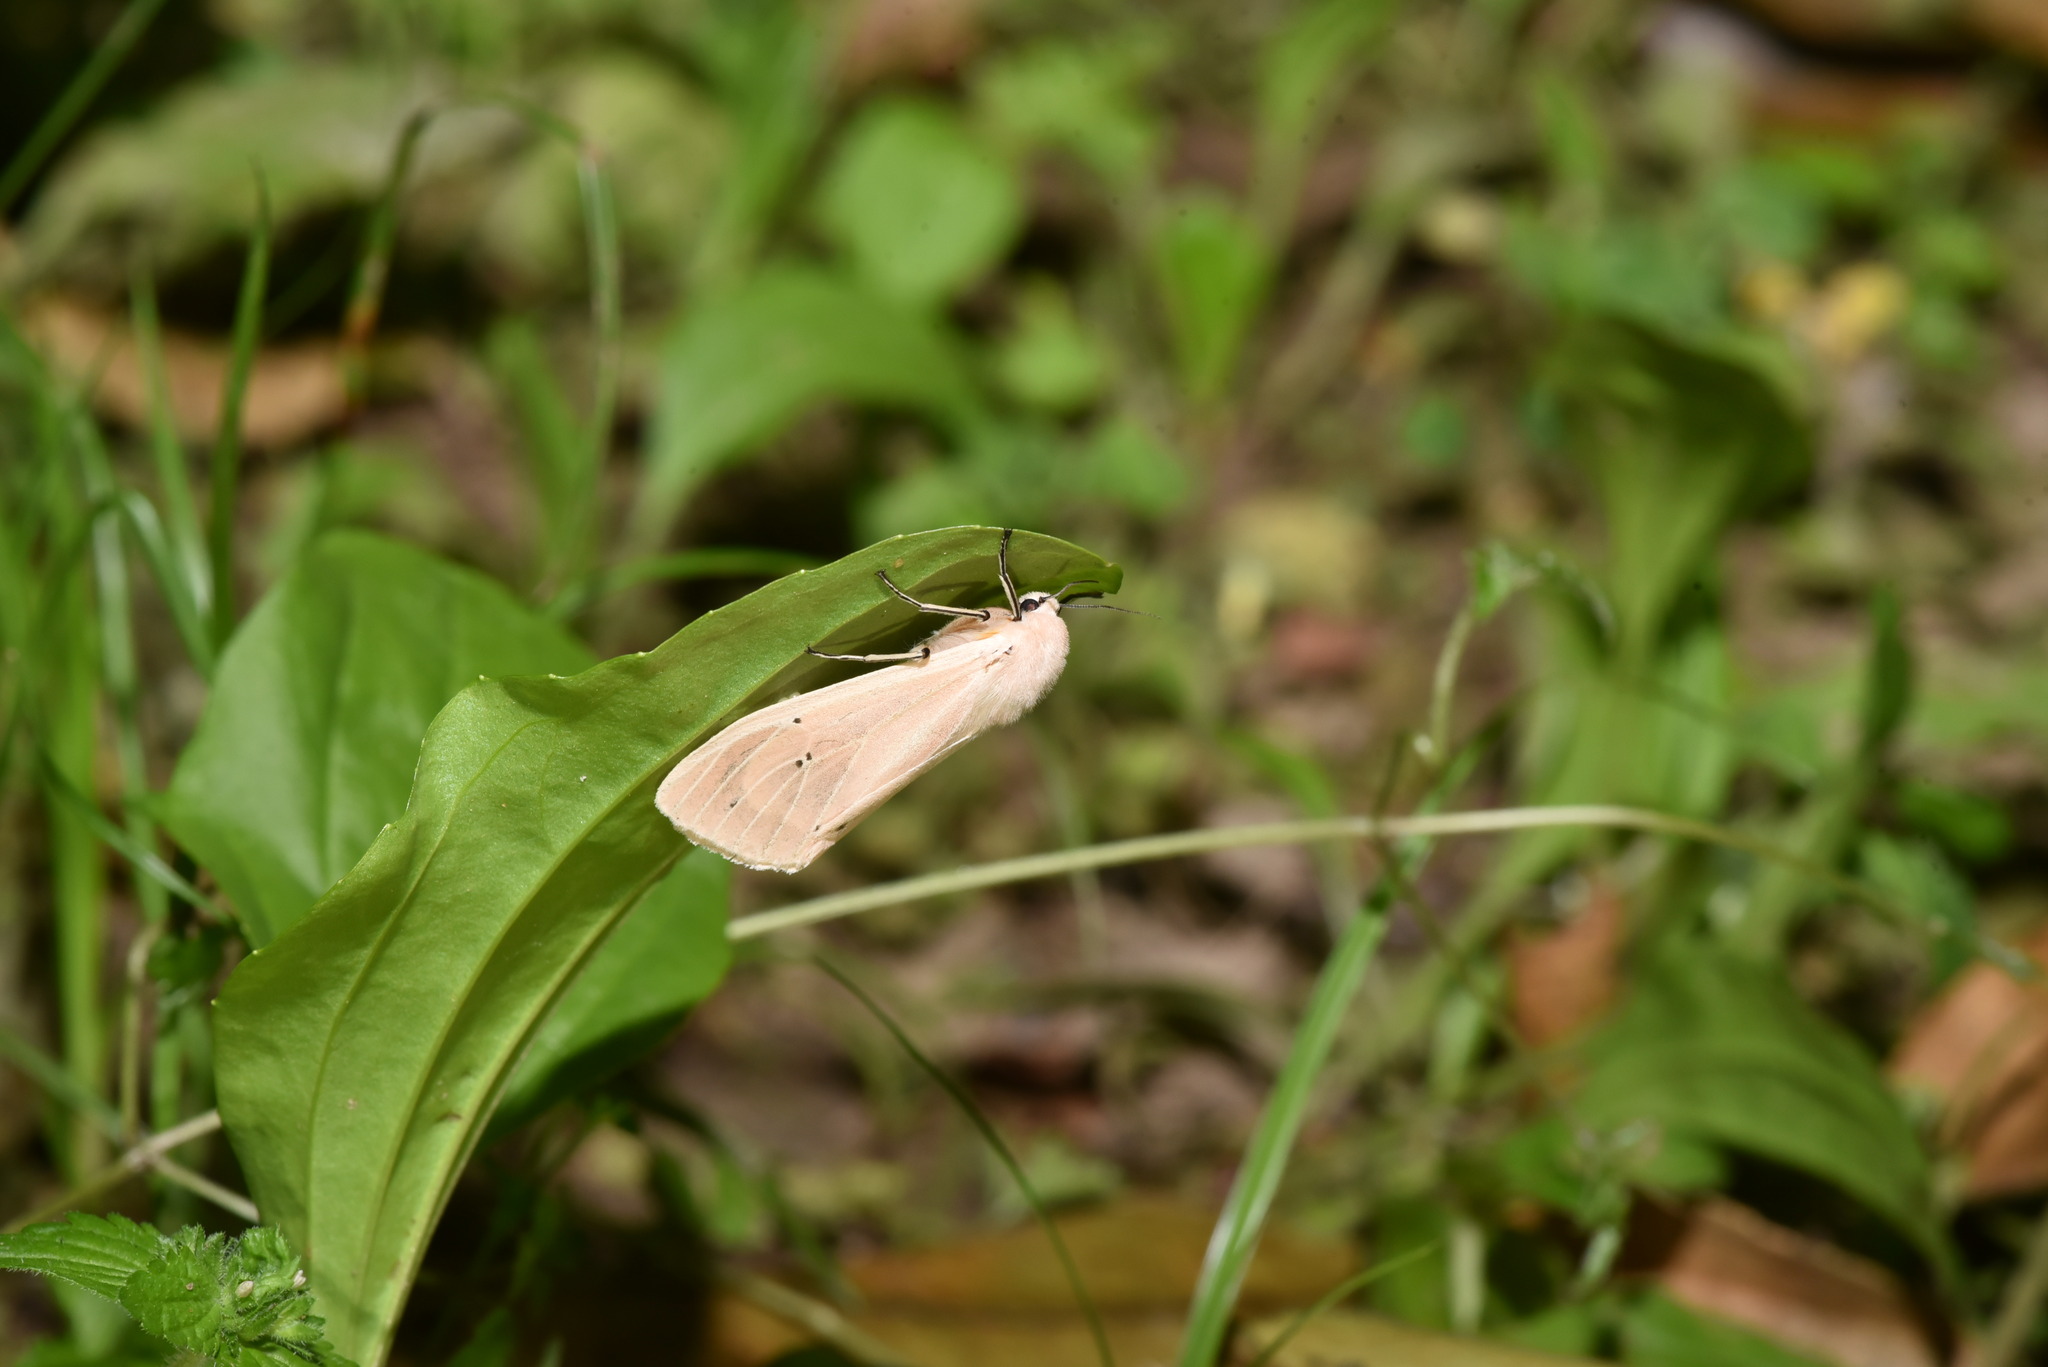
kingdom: Animalia
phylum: Arthropoda
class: Insecta
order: Lepidoptera
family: Erebidae
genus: Creatonotos
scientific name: Creatonotos transiens
